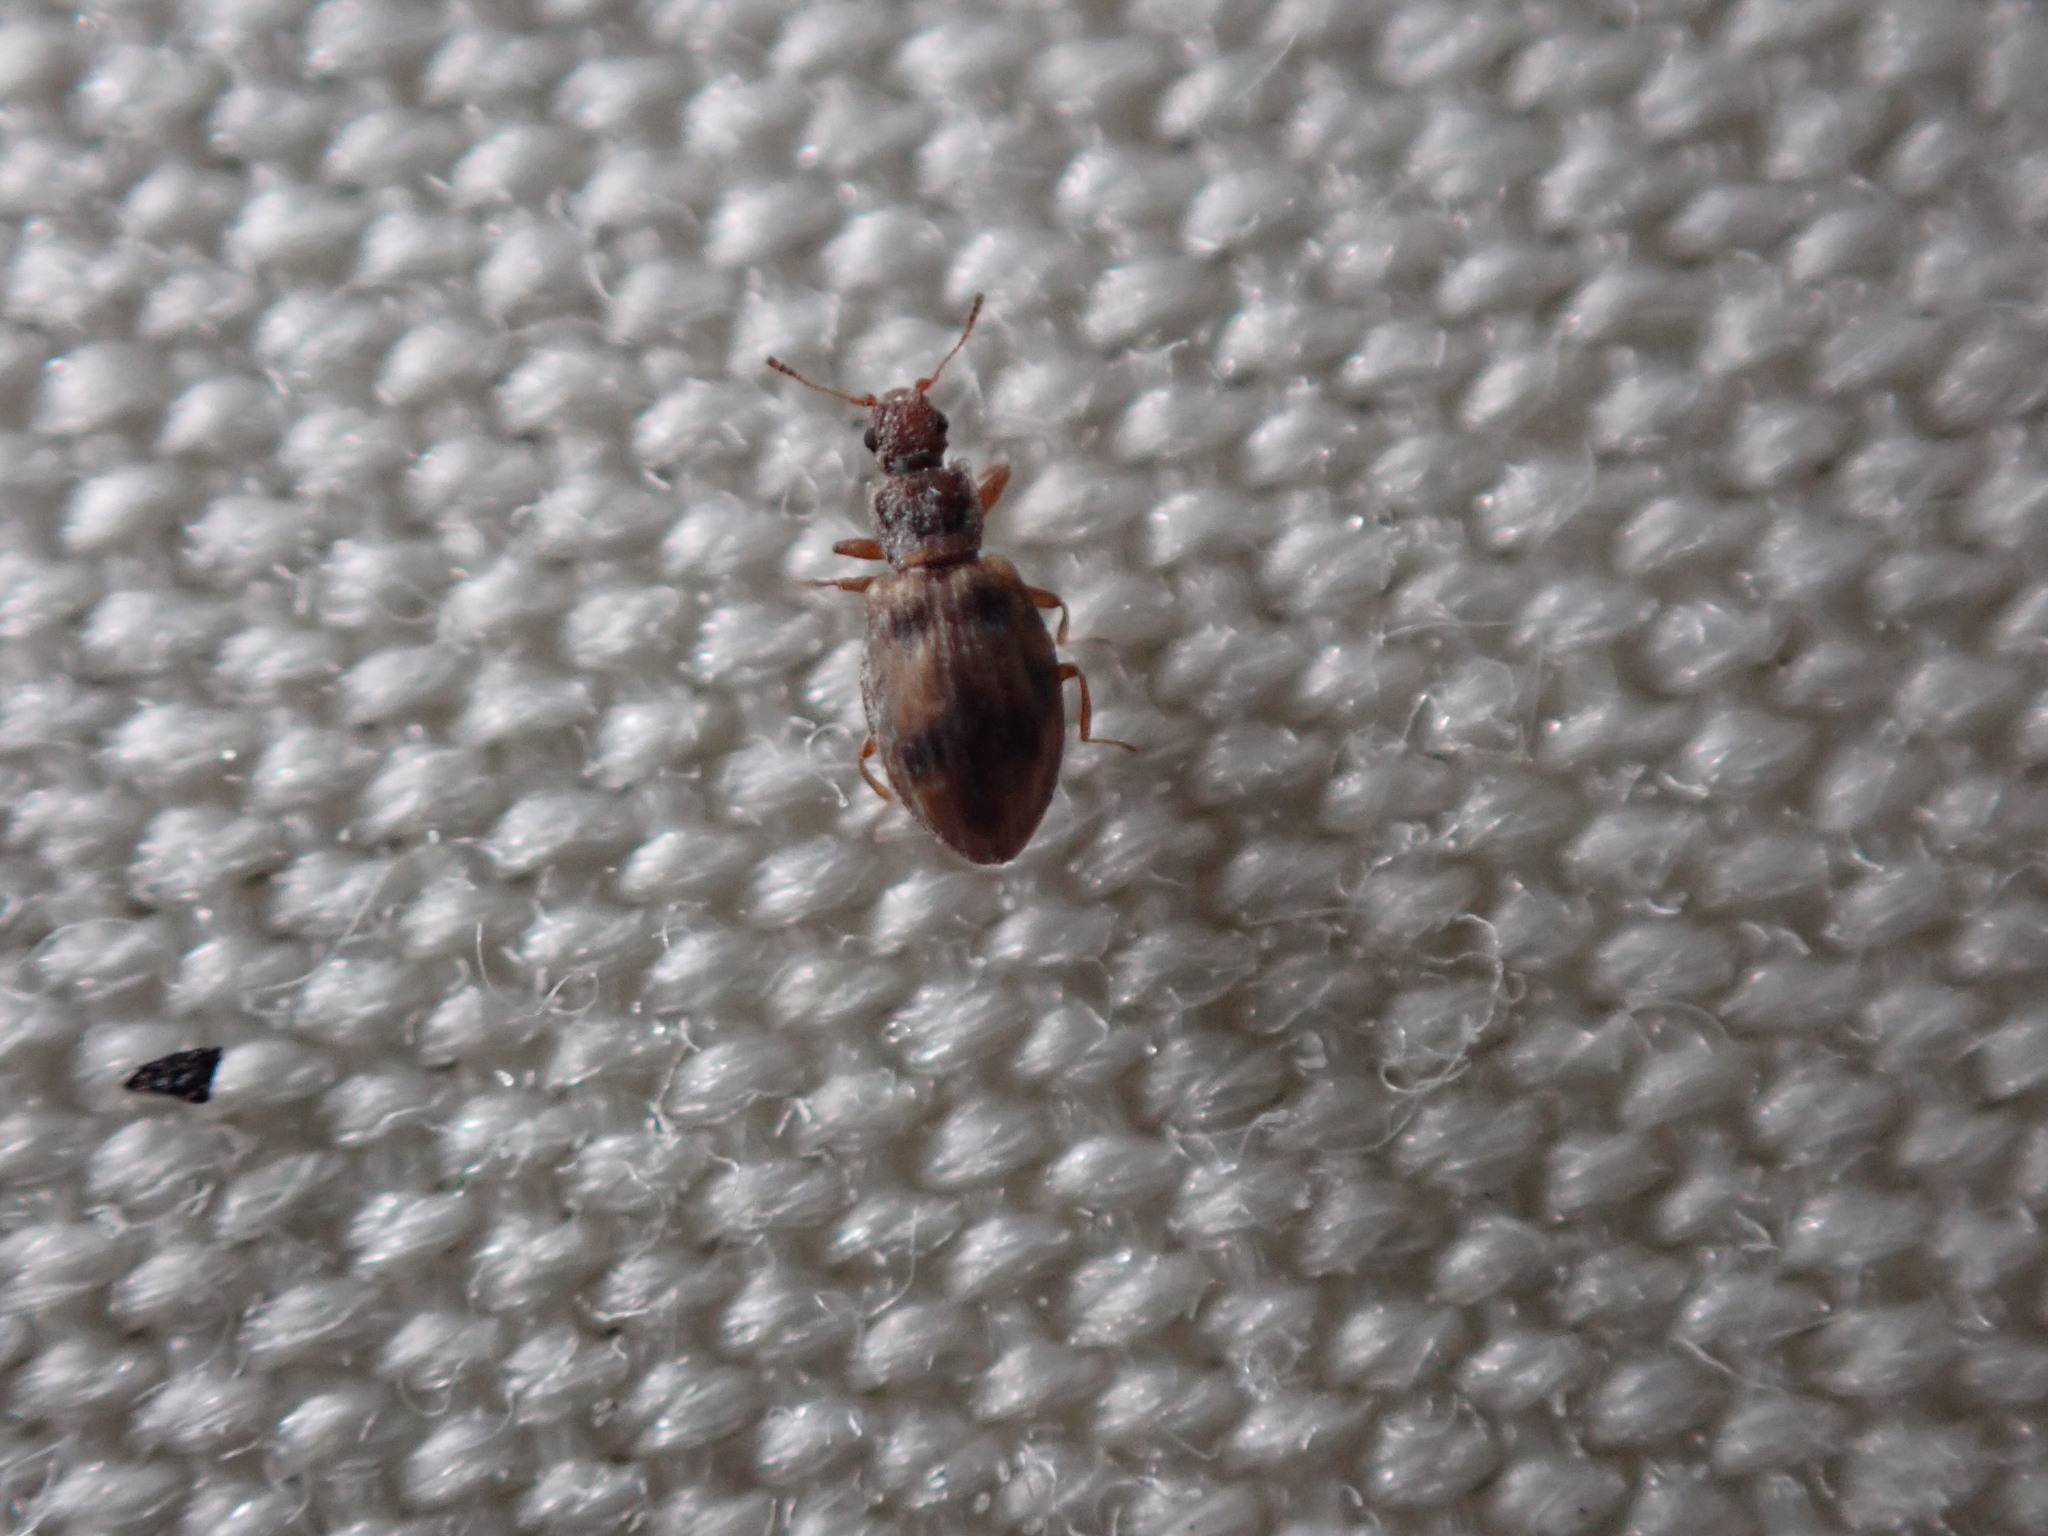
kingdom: Animalia
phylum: Arthropoda
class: Insecta
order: Coleoptera
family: Latridiidae
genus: Cartodere
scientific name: Cartodere bifasciata
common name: Plaster beetle
